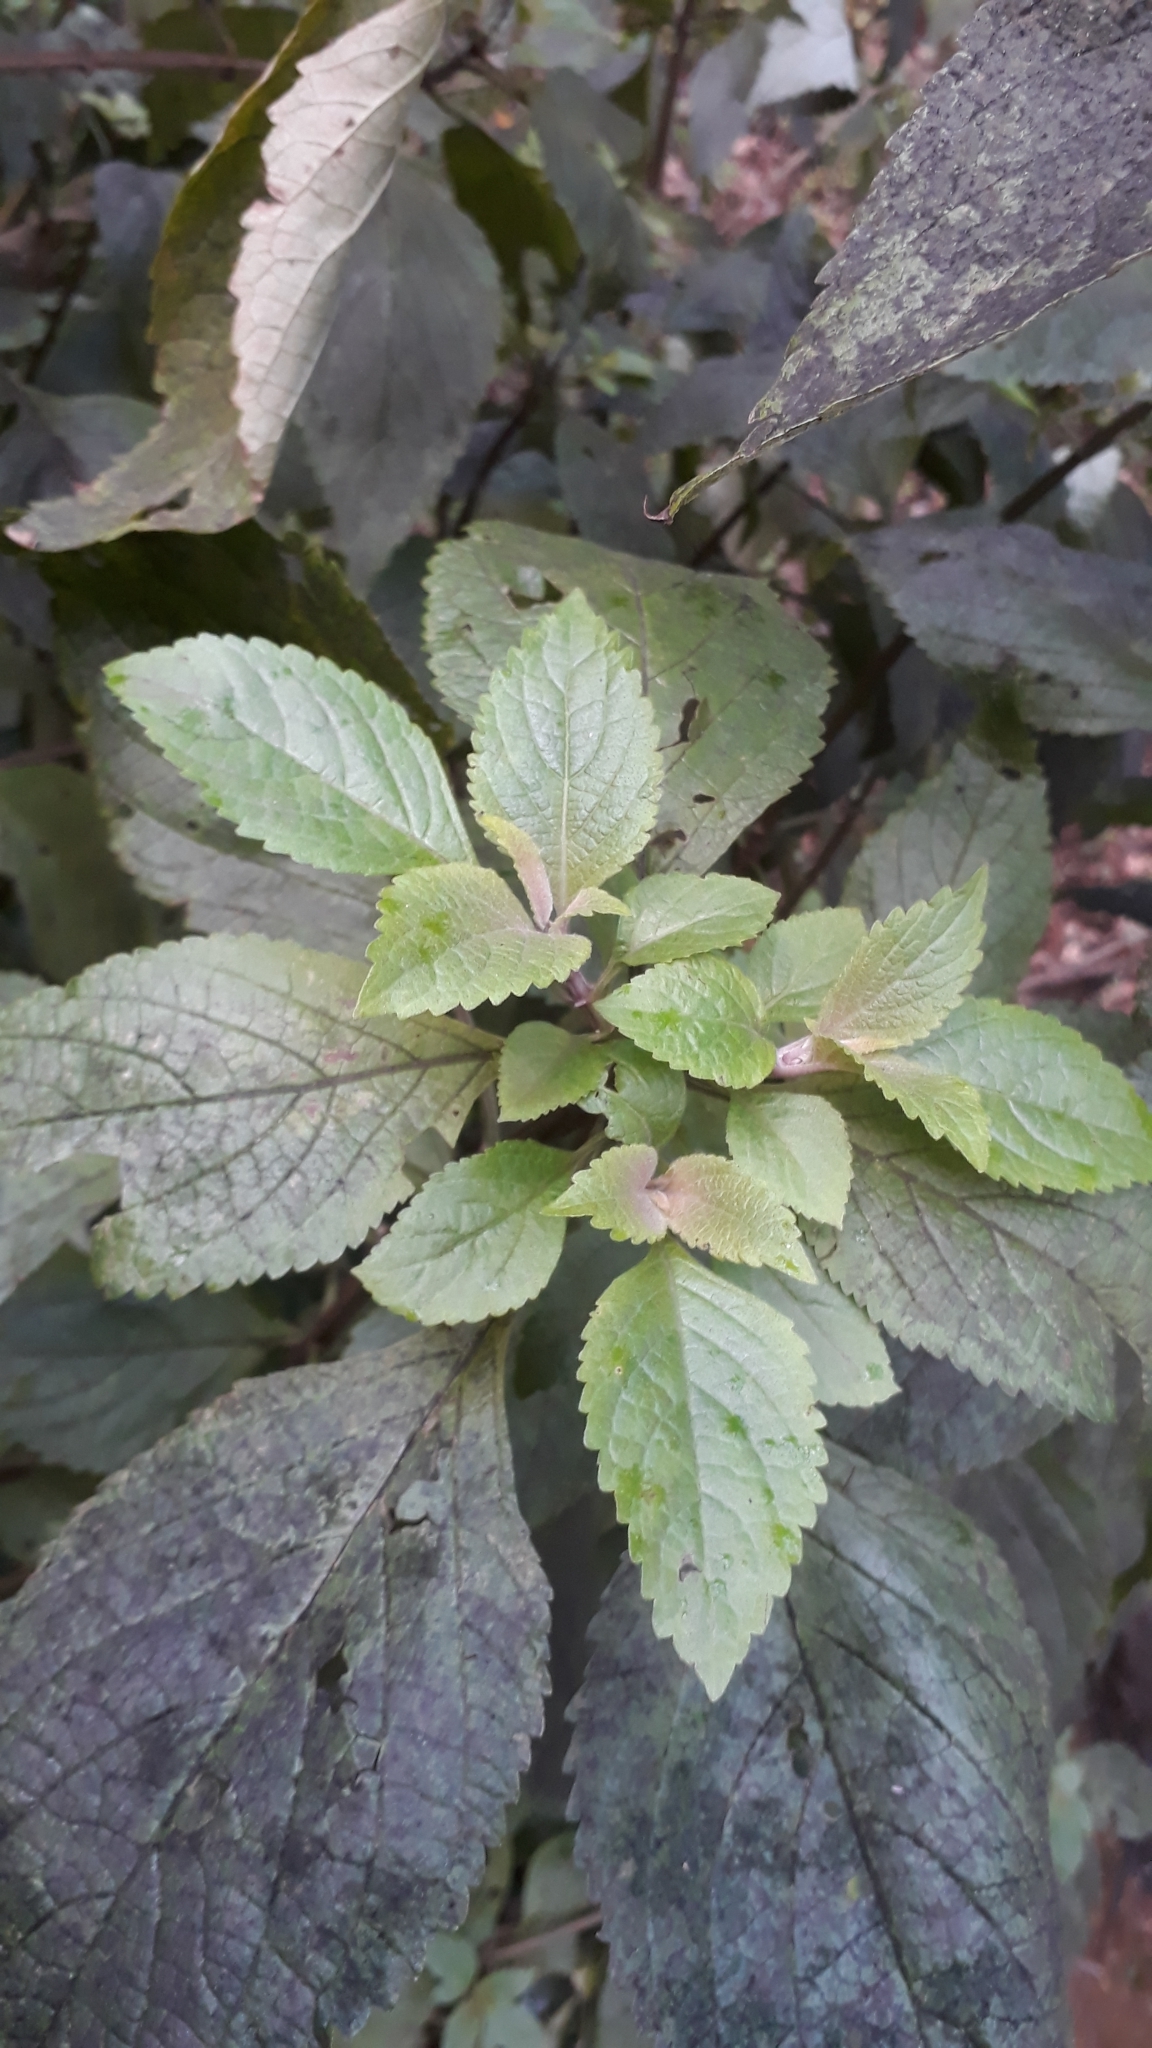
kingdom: Plantae
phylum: Tracheophyta
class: Magnoliopsida
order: Lamiales
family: Lamiaceae
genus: Plectranthus
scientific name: Plectranthus ecklonii
